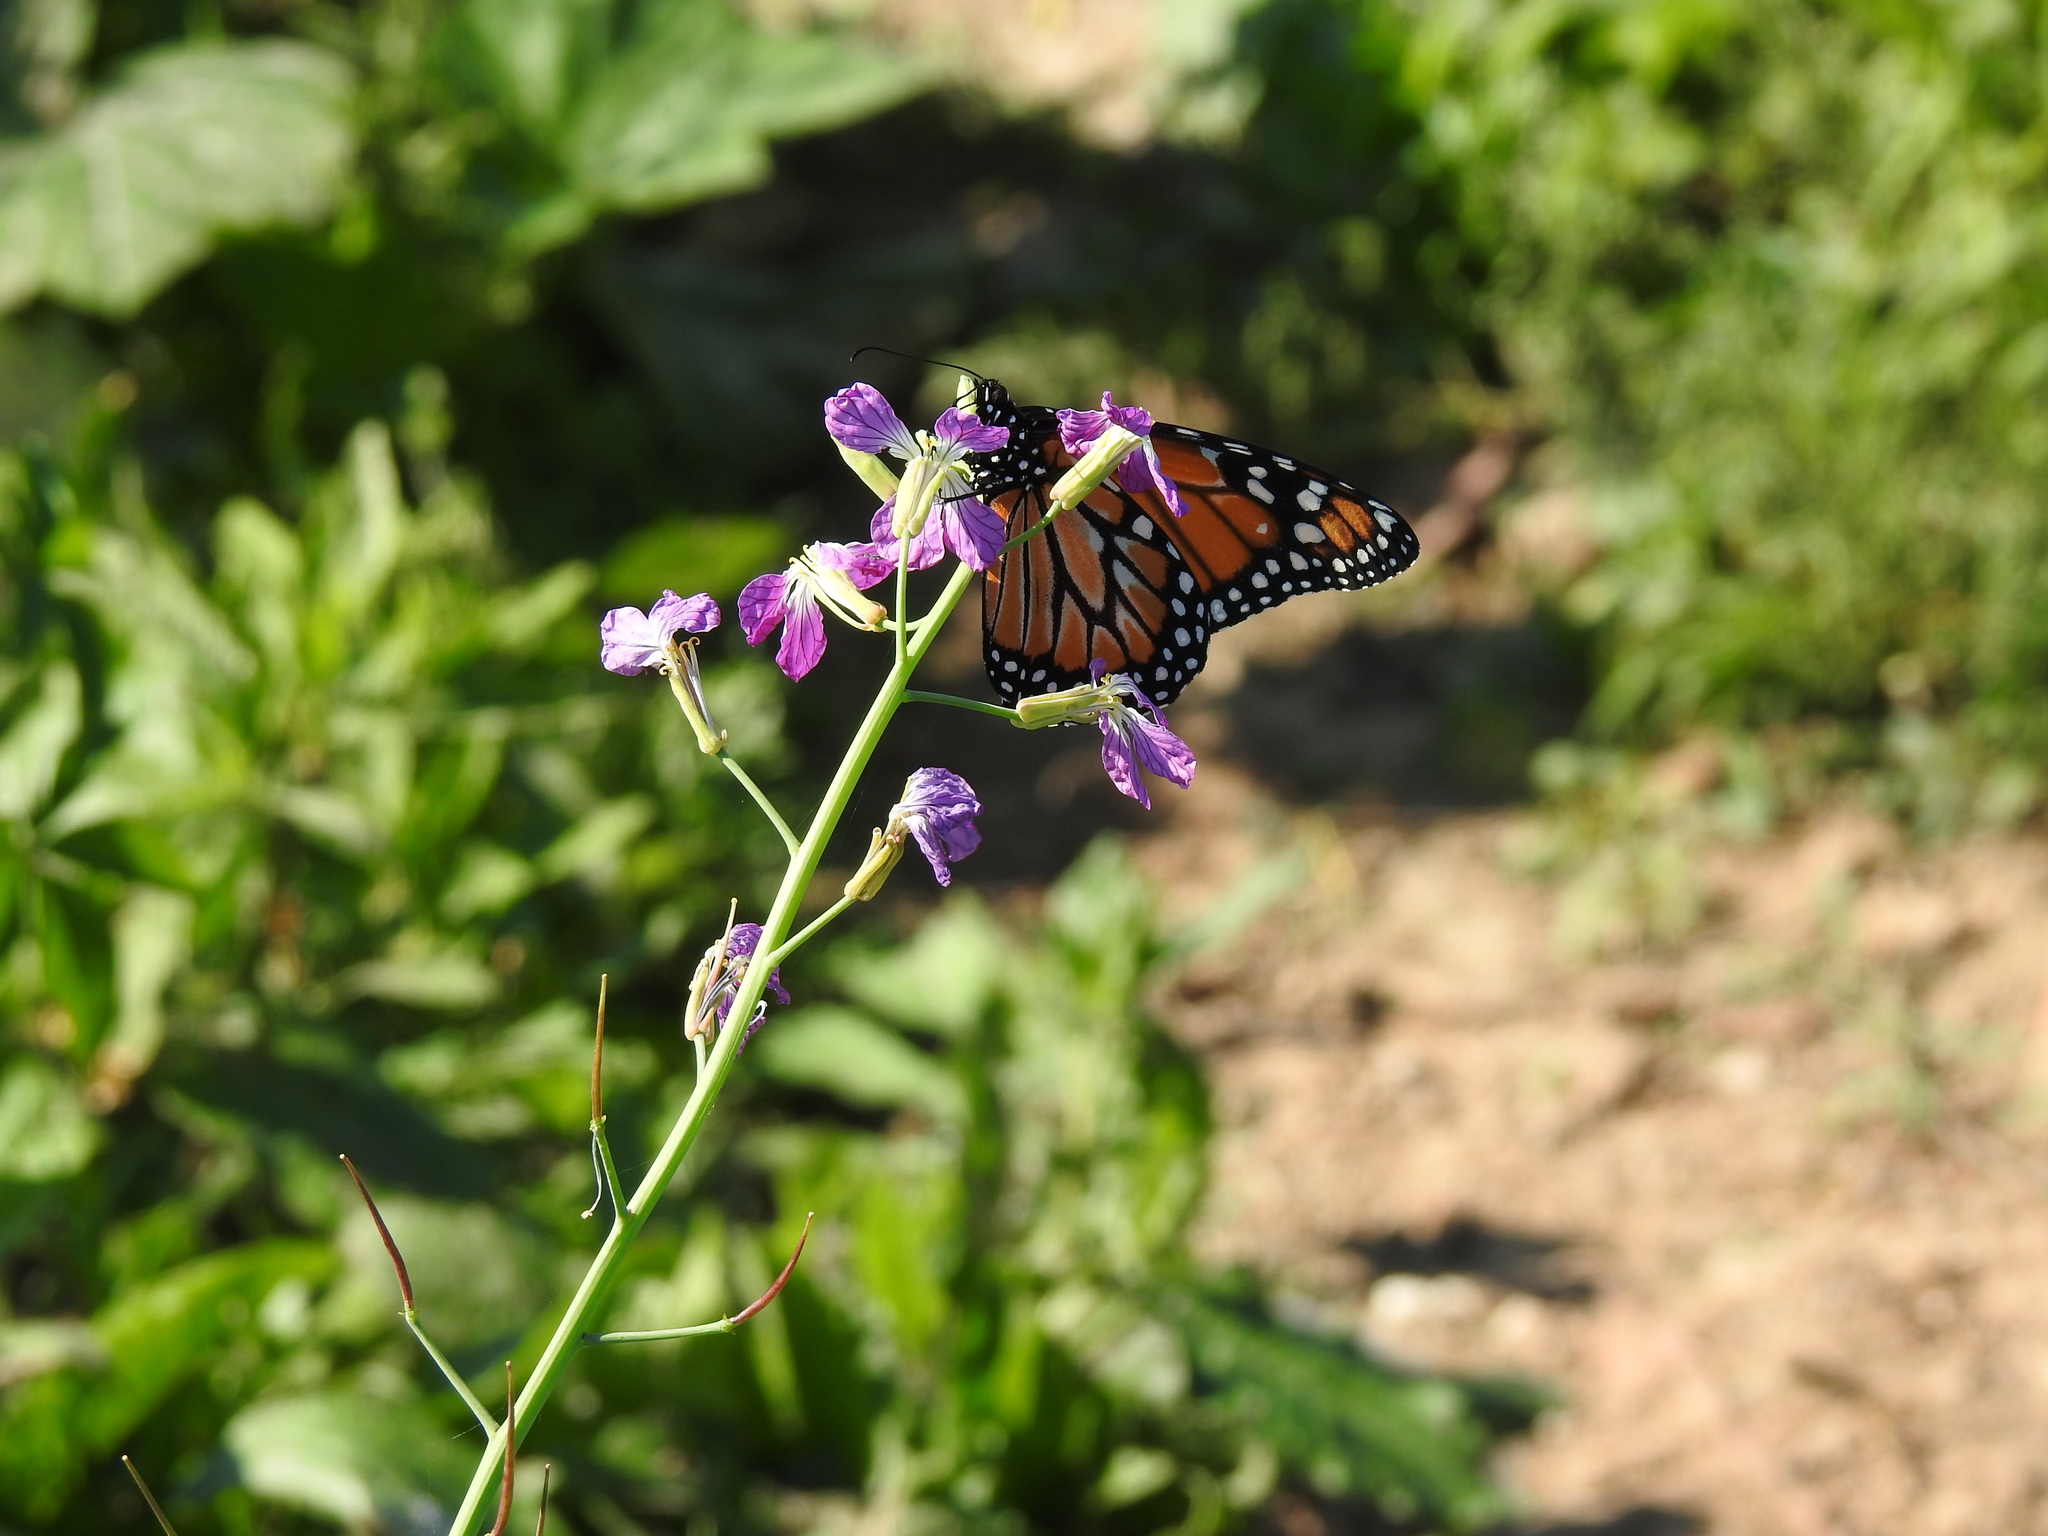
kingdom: Animalia
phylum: Arthropoda
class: Insecta
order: Lepidoptera
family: Nymphalidae
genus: Danaus
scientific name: Danaus erippus
